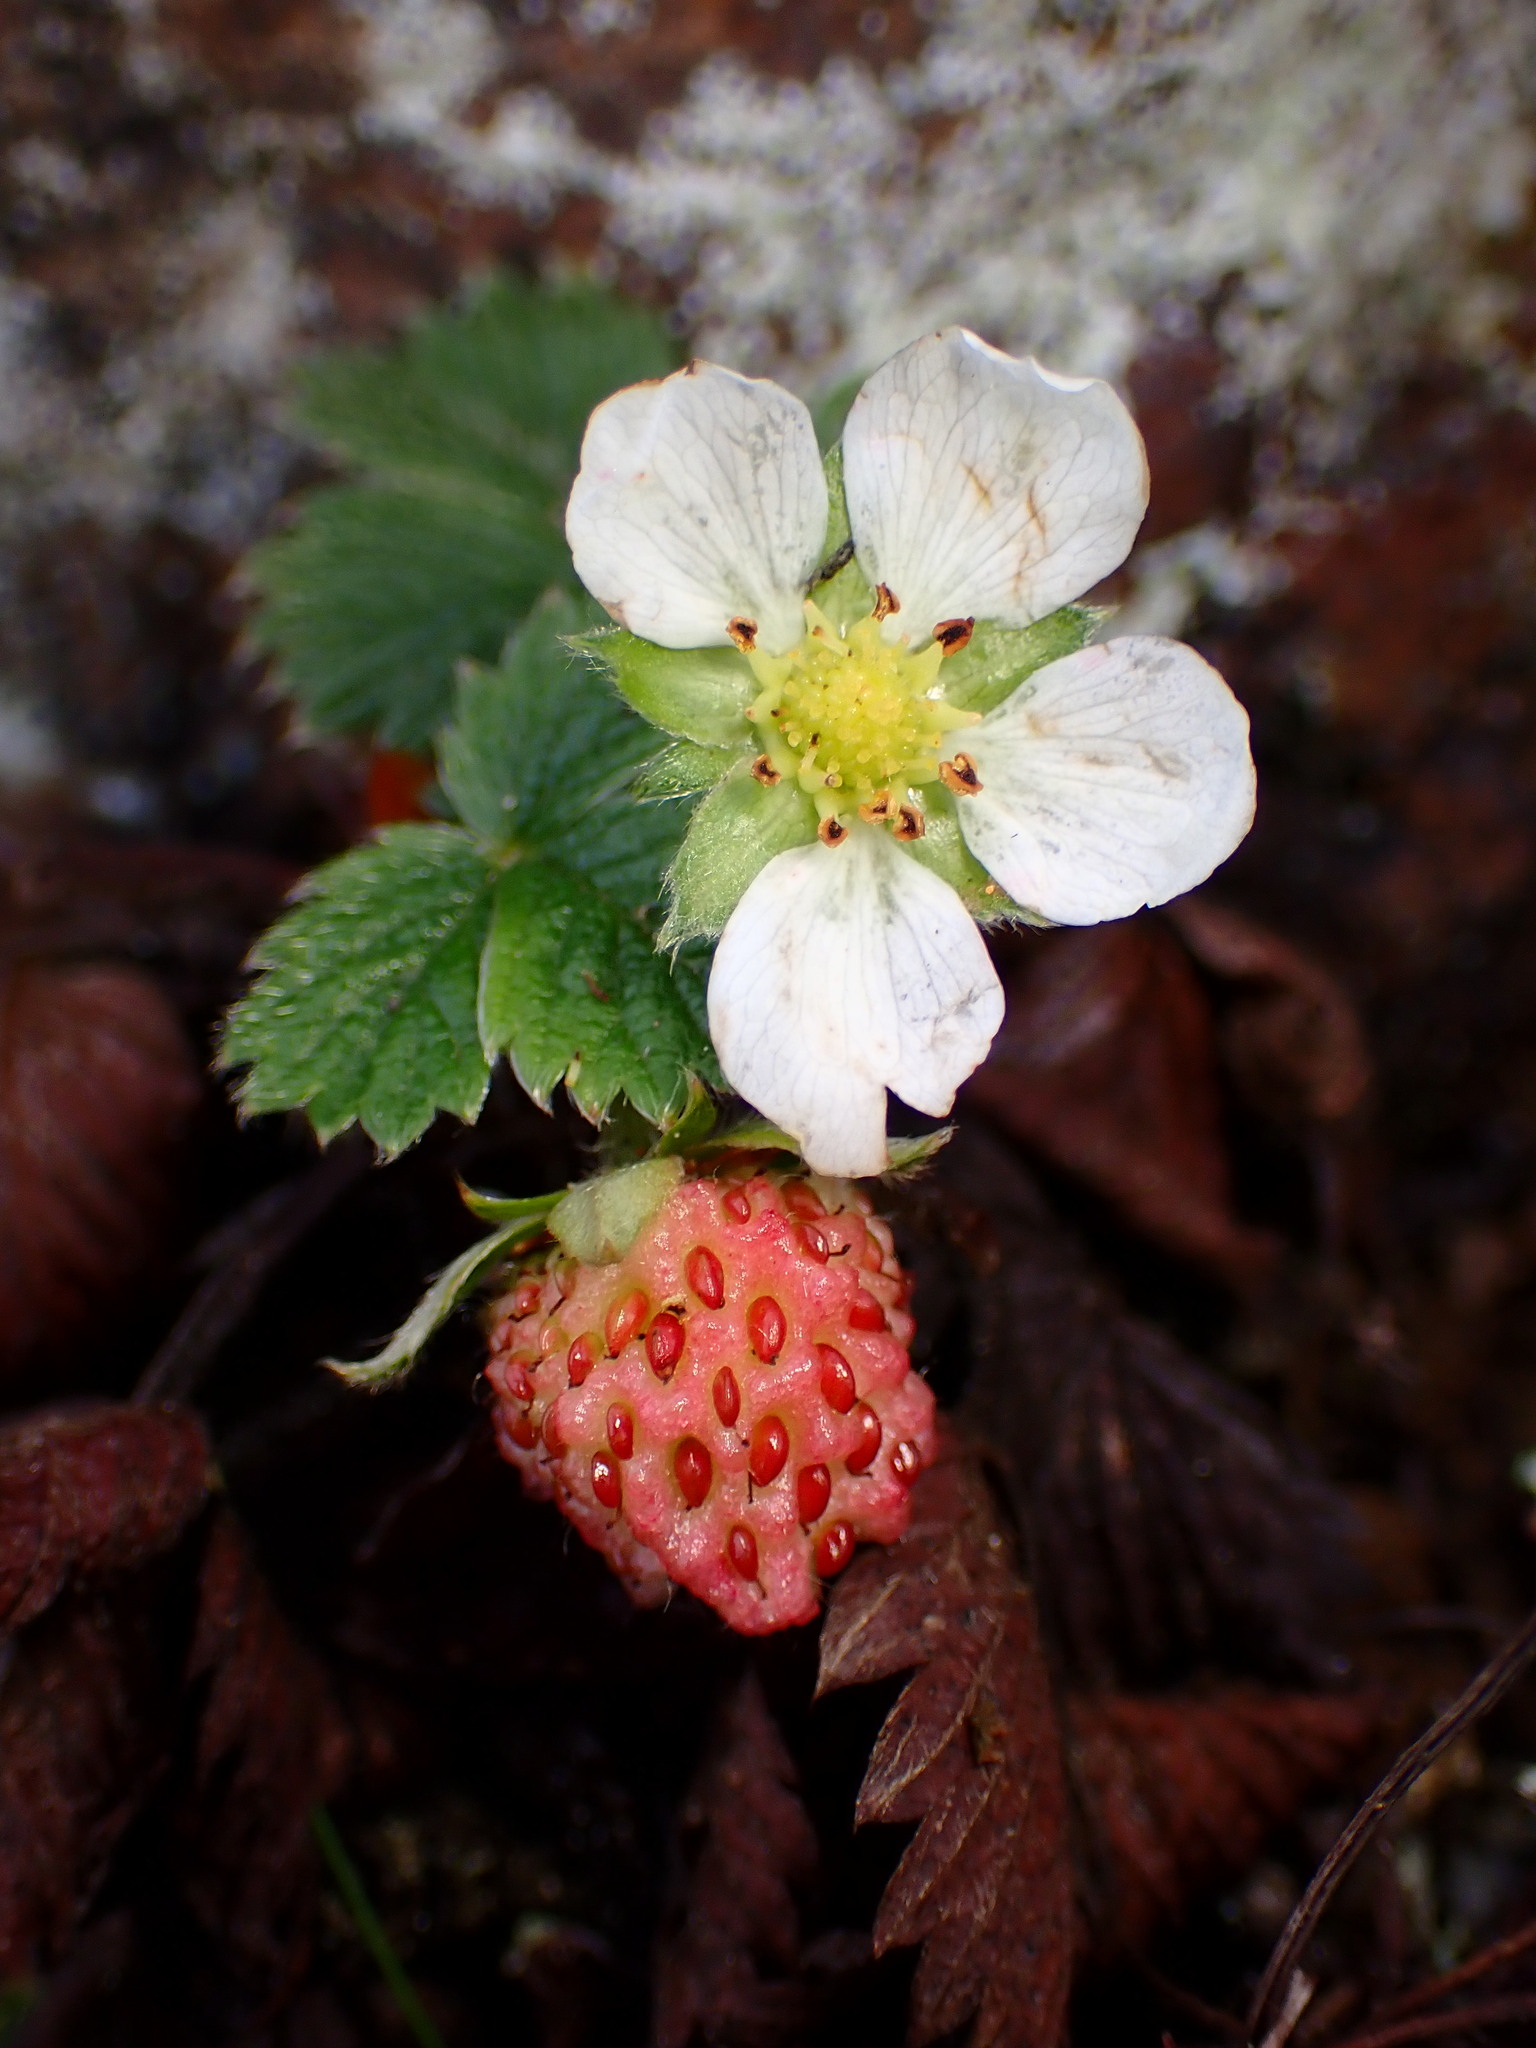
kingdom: Plantae
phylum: Tracheophyta
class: Magnoliopsida
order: Rosales
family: Rosaceae
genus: Fragaria
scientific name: Fragaria vesca
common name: Wild strawberry
